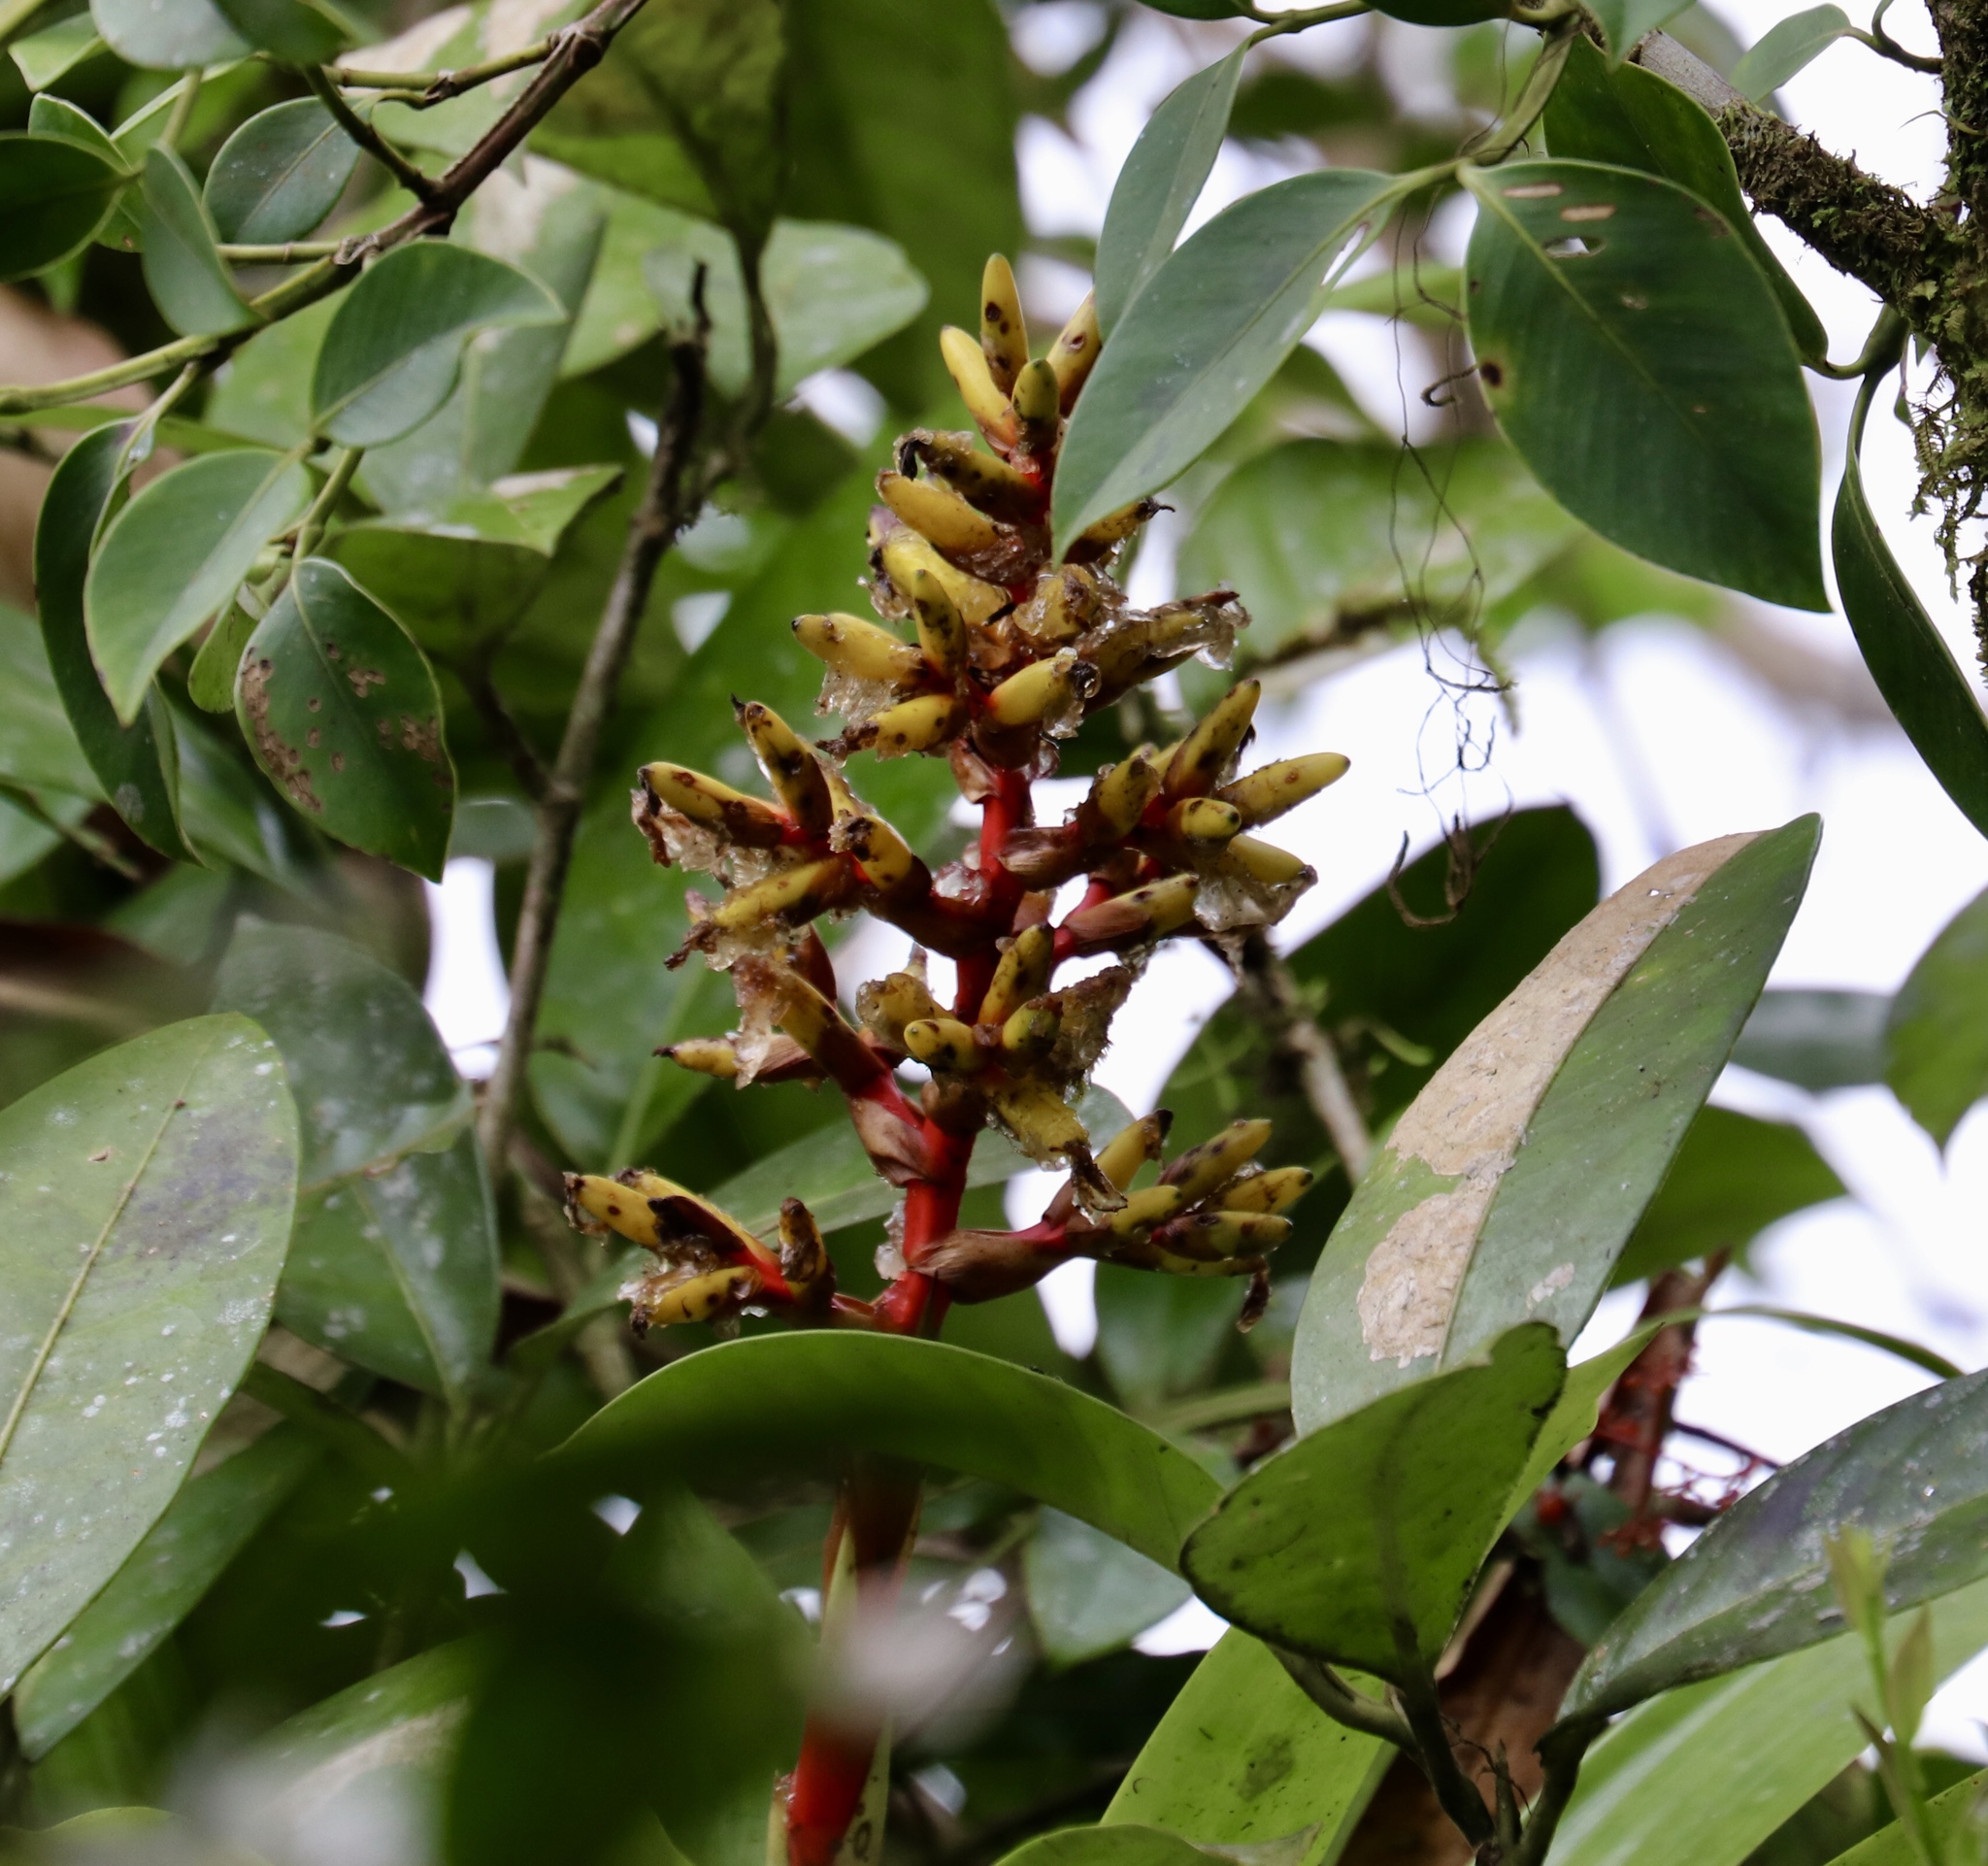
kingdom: Plantae
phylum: Tracheophyta
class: Liliopsida
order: Poales
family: Bromeliaceae
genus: Guzmania
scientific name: Guzmania scherzeriana
